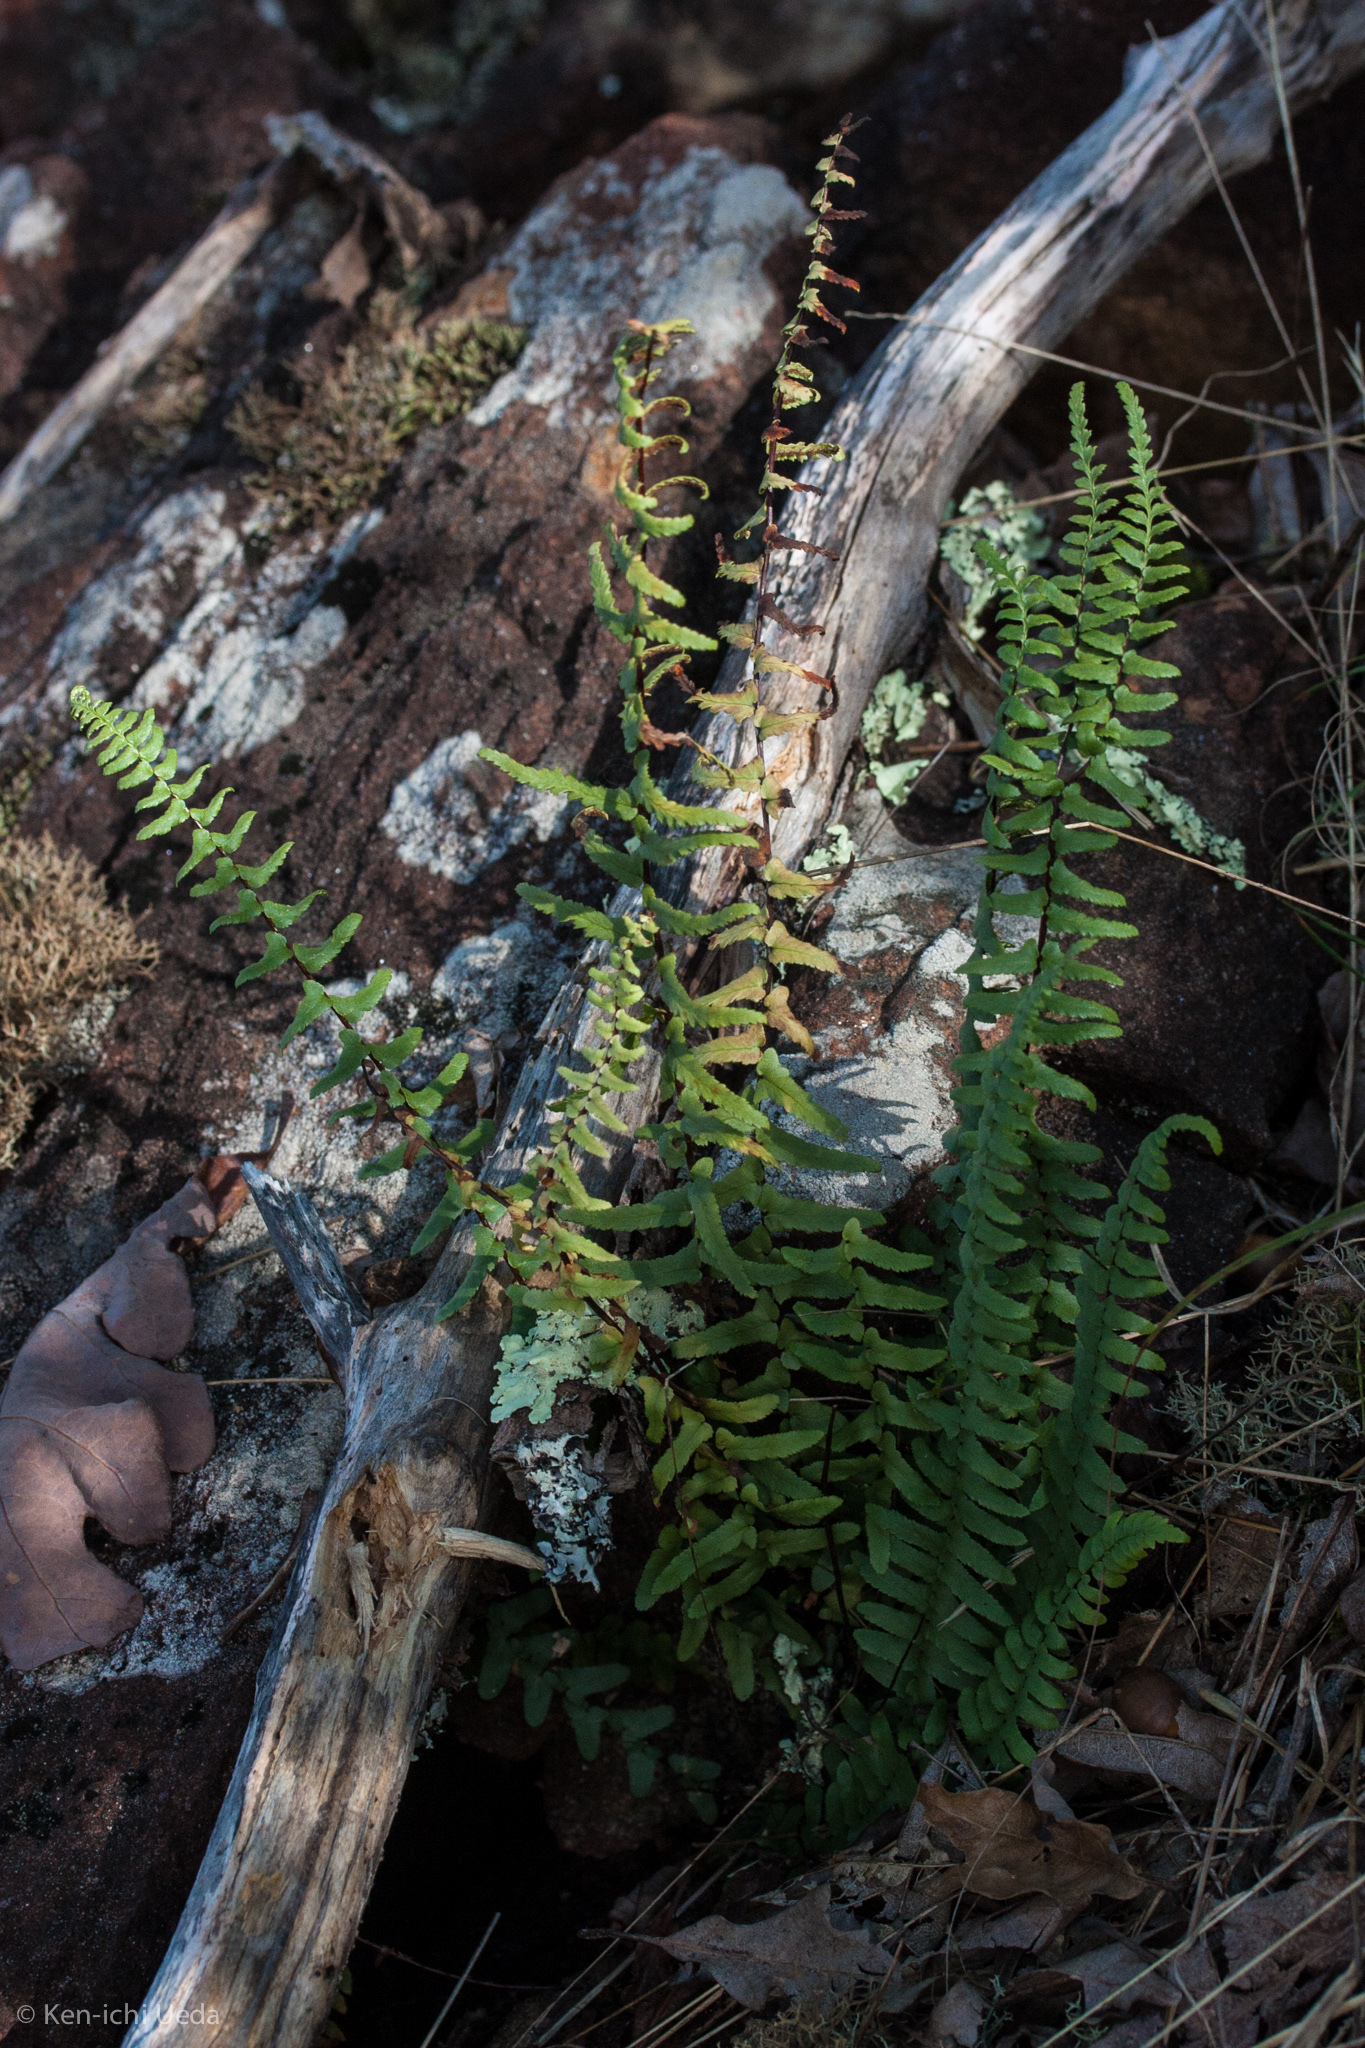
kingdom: Plantae
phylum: Tracheophyta
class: Polypodiopsida
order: Polypodiales
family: Aspleniaceae
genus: Asplenium
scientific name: Asplenium platyneuron
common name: Ebony spleenwort
